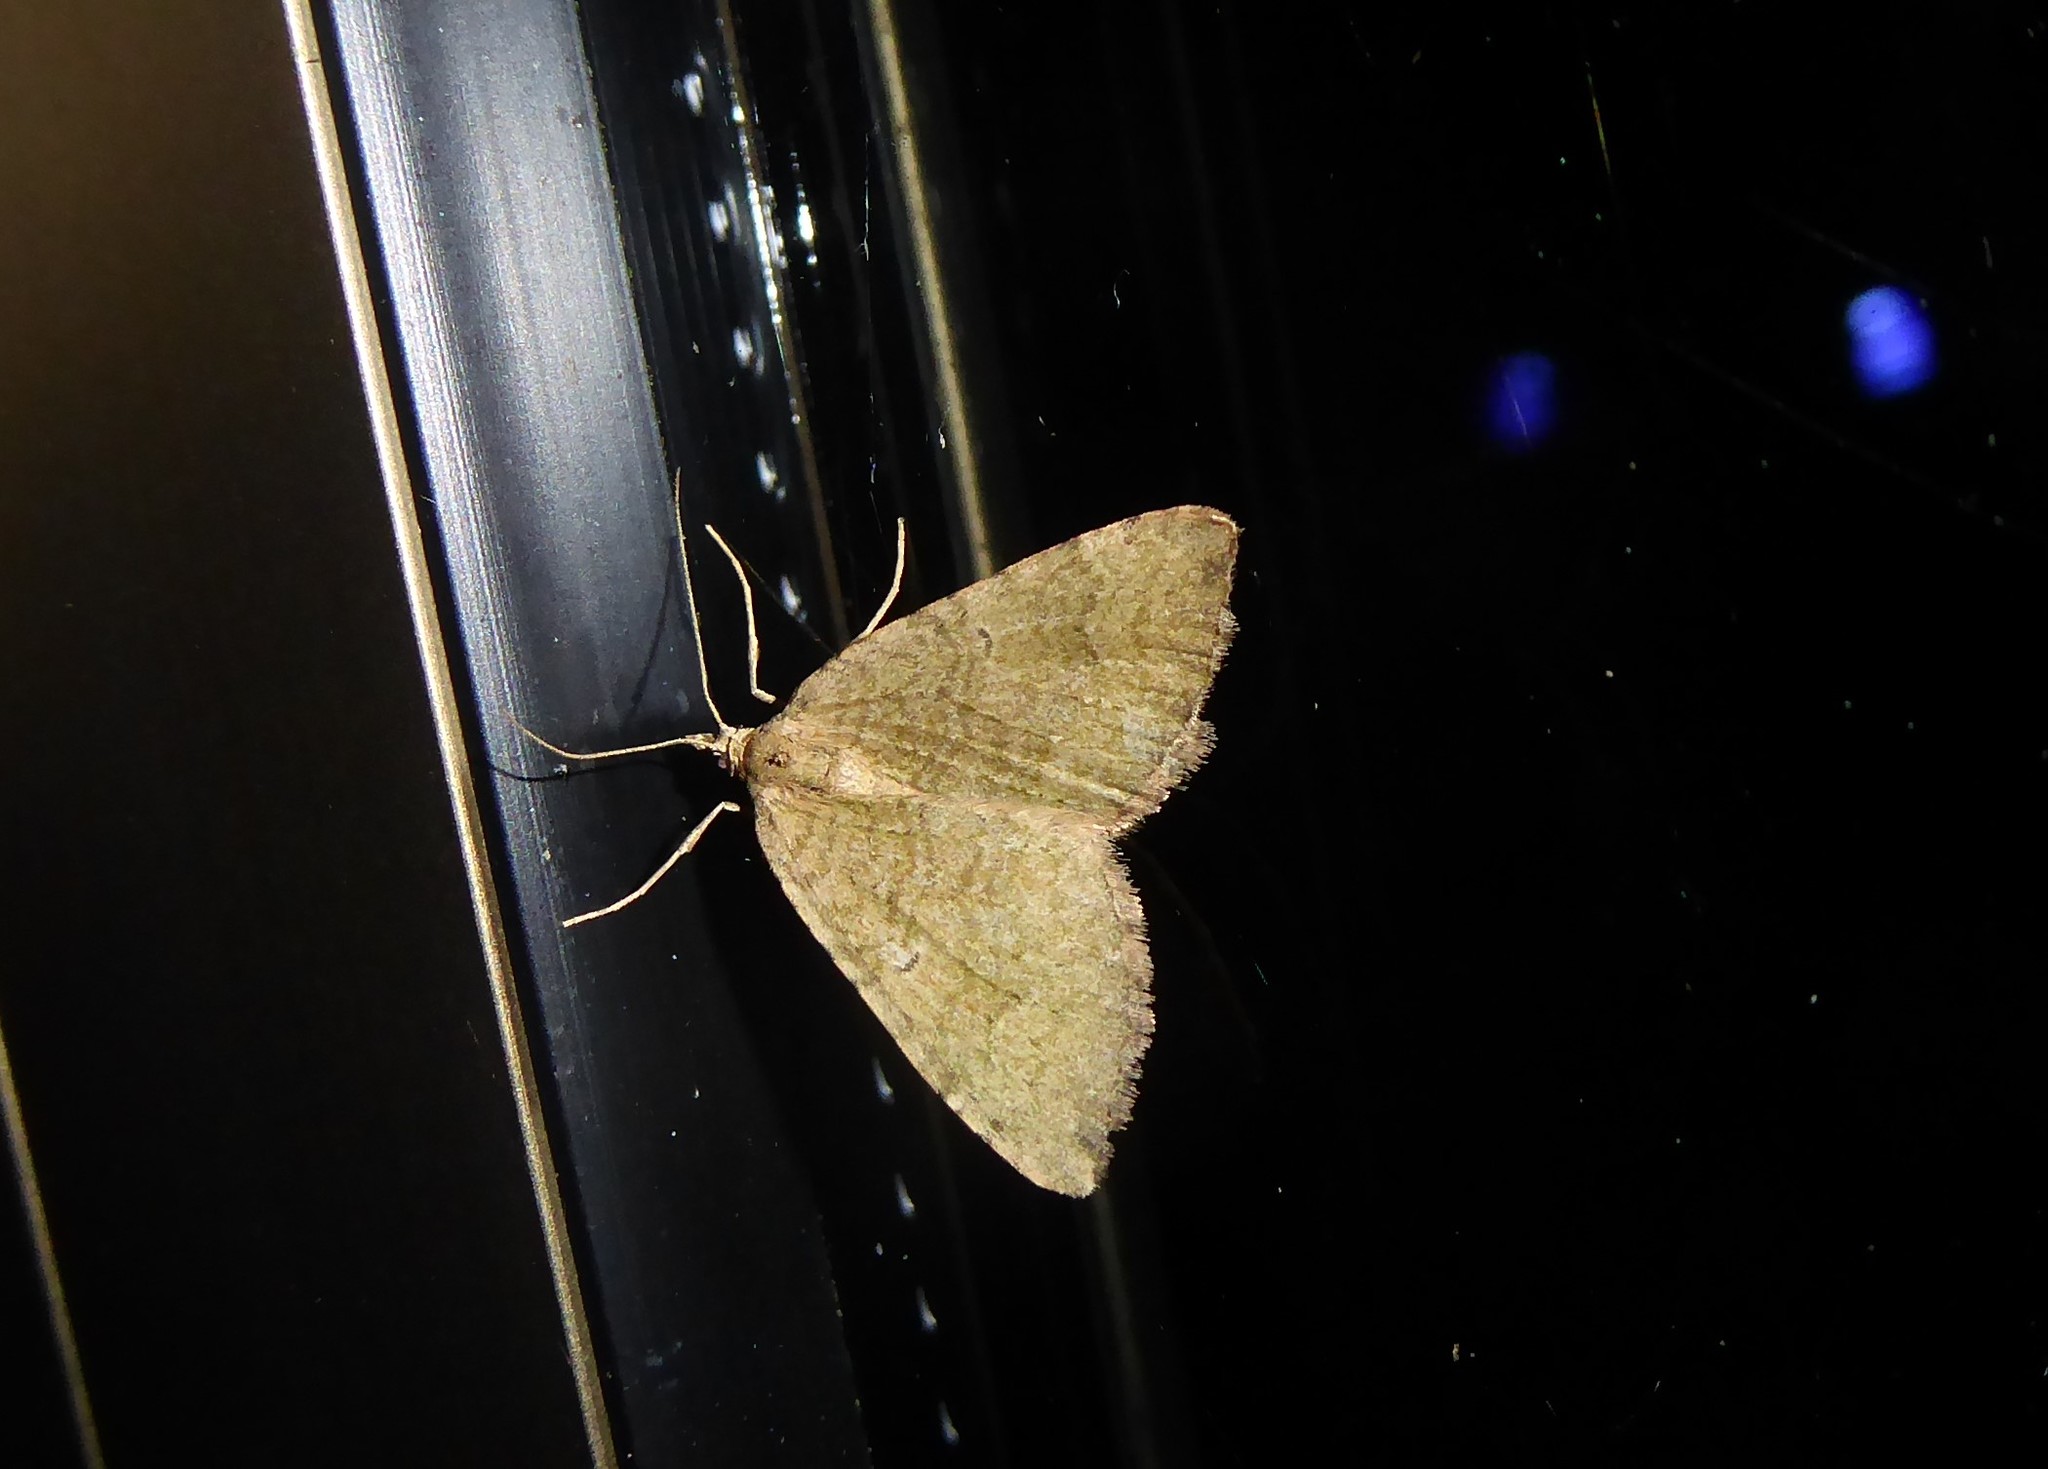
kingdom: Animalia
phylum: Arthropoda
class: Insecta
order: Lepidoptera
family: Geometridae
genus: Epyaxa
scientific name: Epyaxa rosearia
